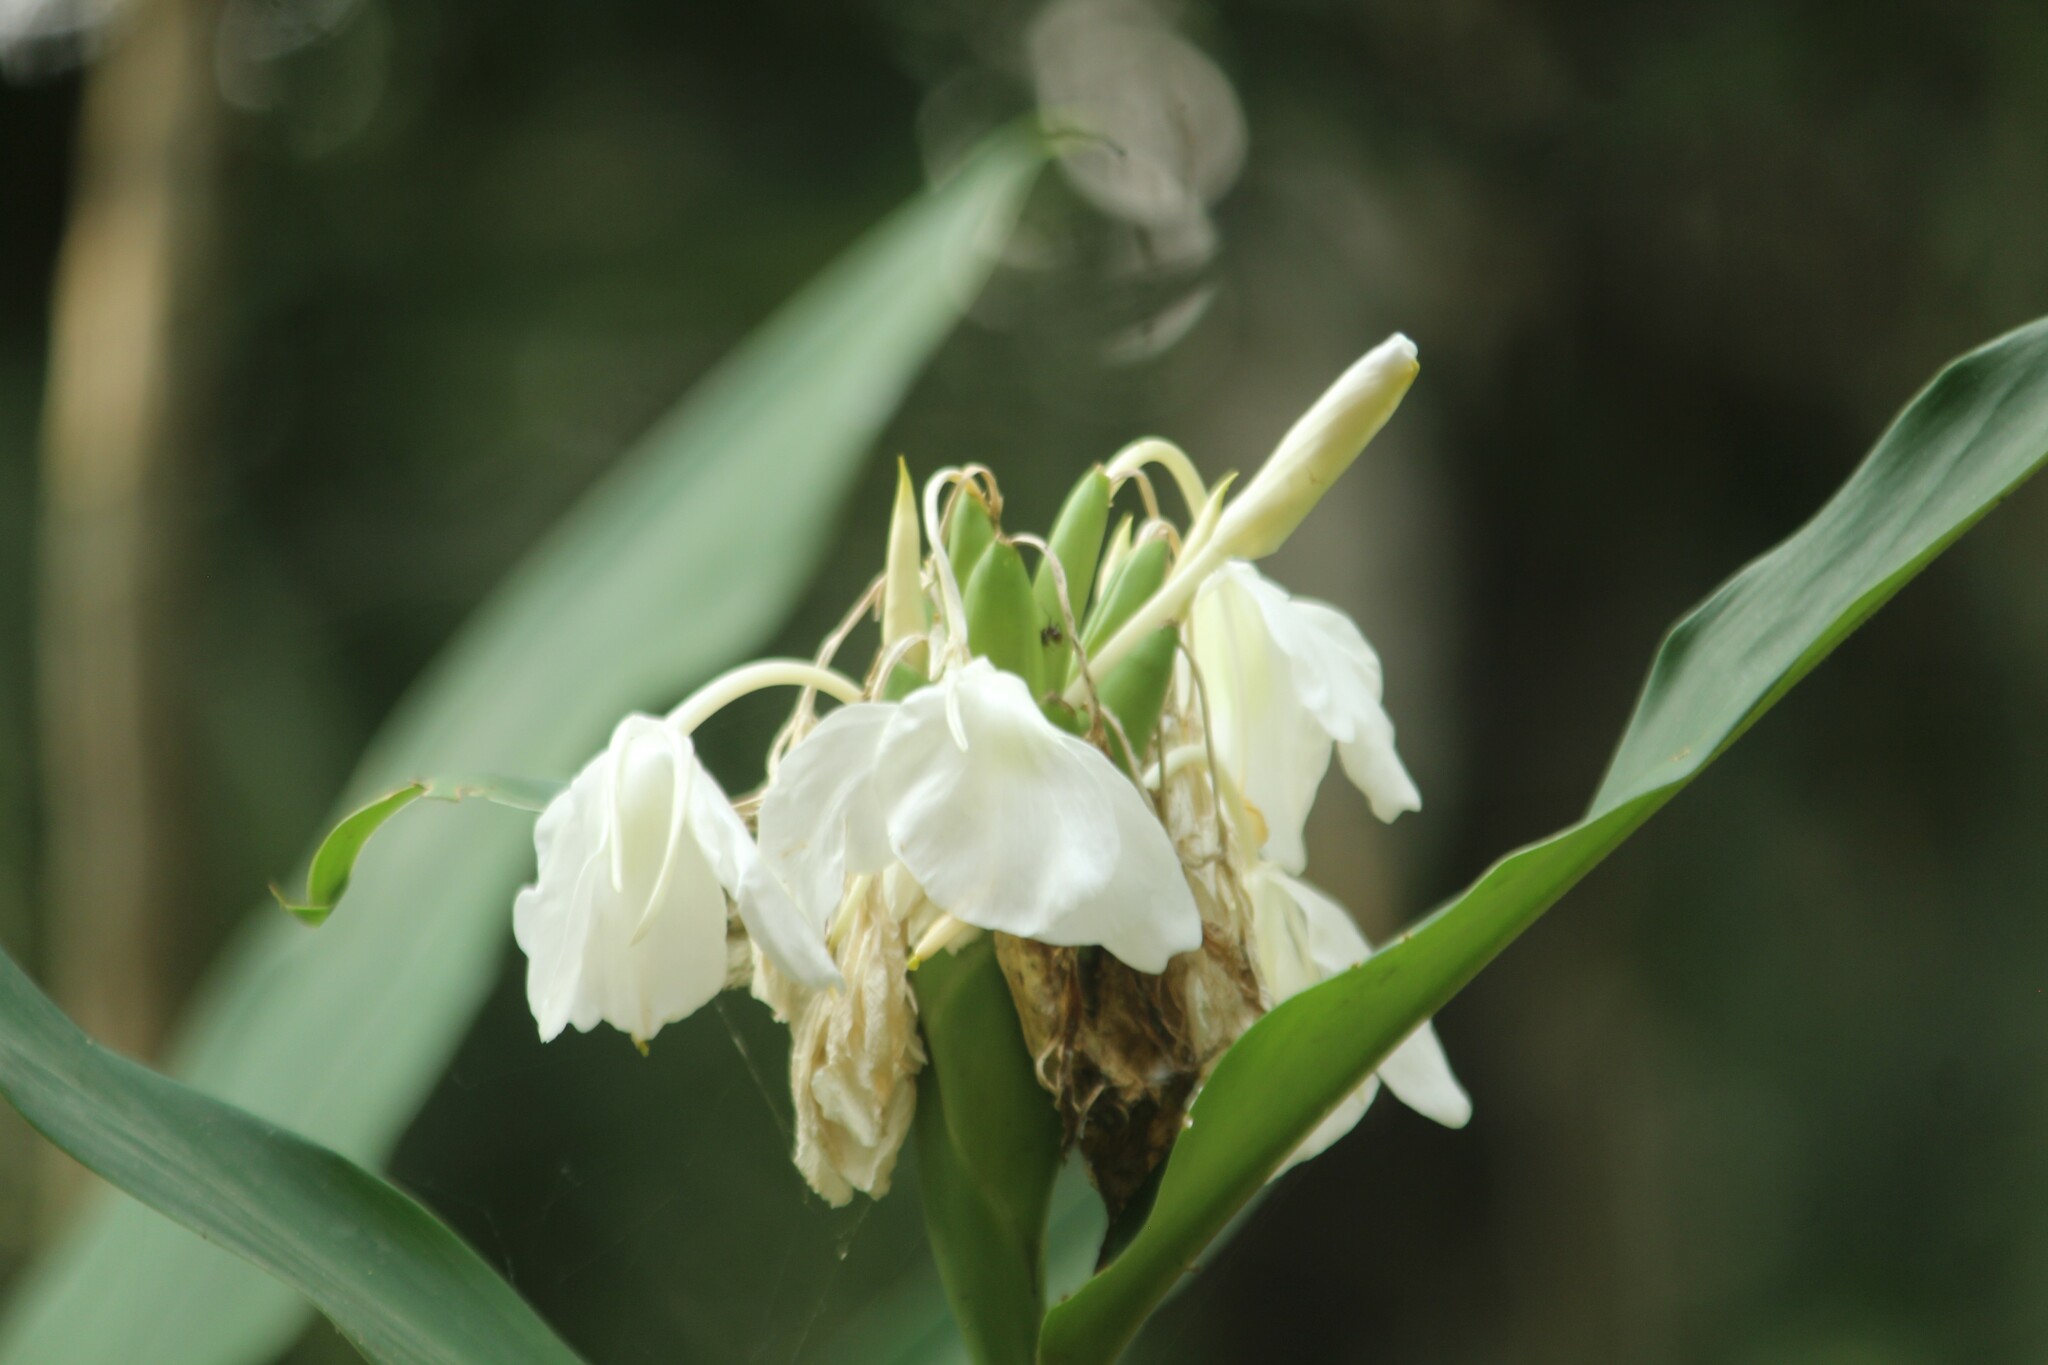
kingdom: Plantae
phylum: Tracheophyta
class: Liliopsida
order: Zingiberales
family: Zingiberaceae
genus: Hedychium
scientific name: Hedychium coronarium
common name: White garland-lily
